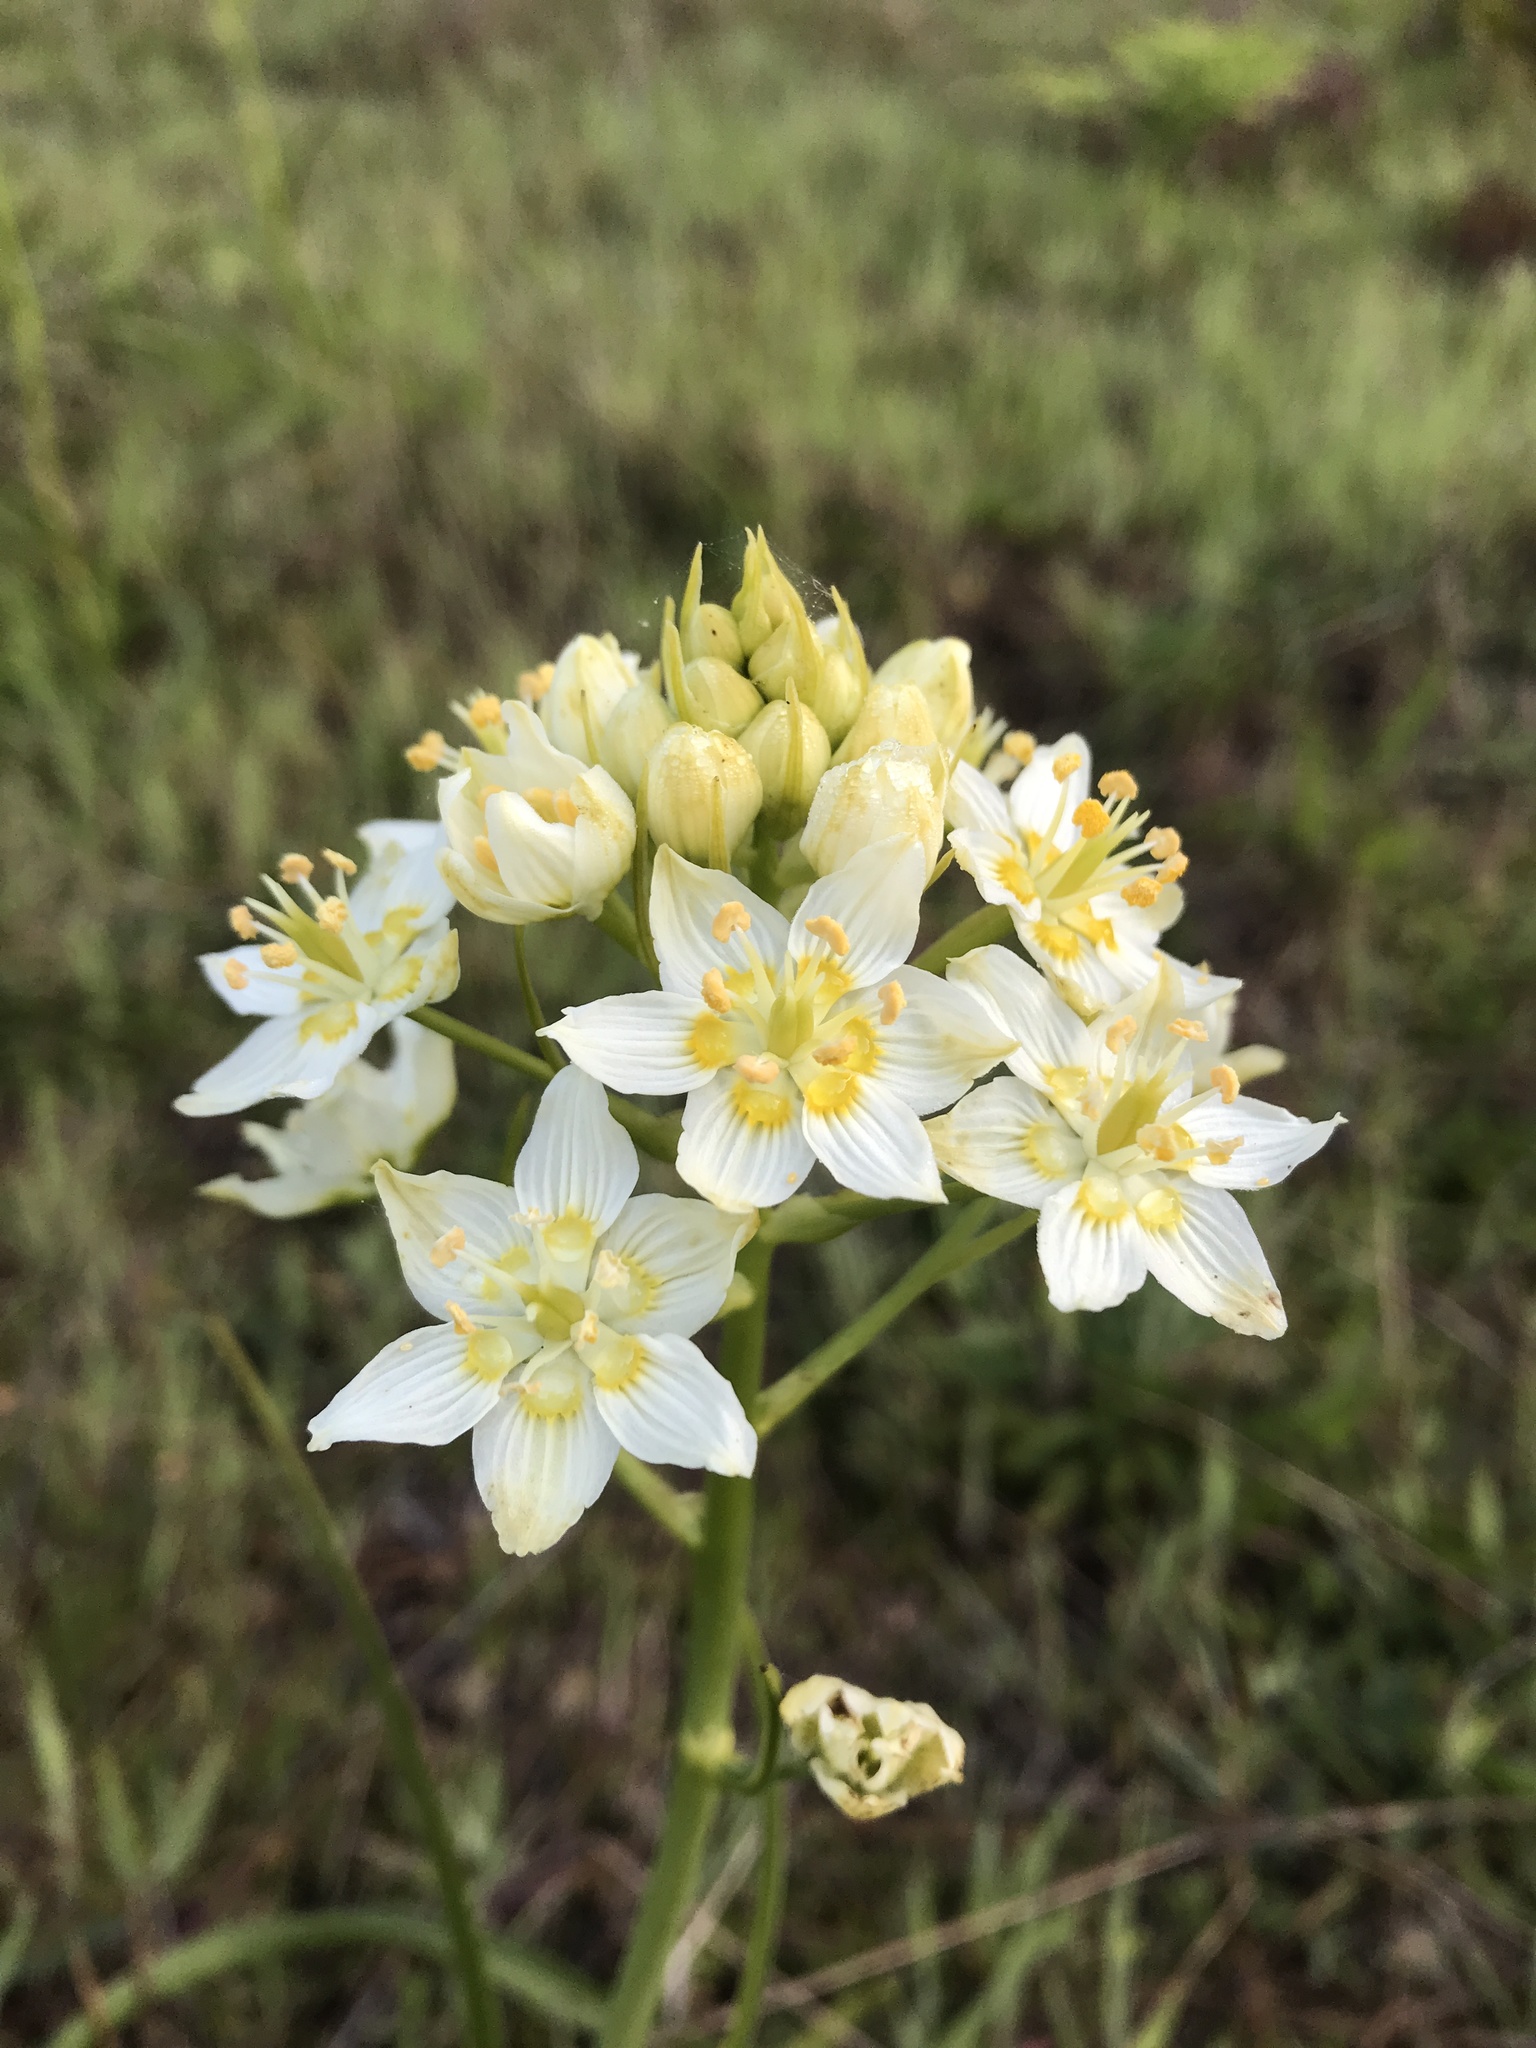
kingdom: Plantae
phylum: Tracheophyta
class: Liliopsida
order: Liliales
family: Melanthiaceae
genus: Toxicoscordion
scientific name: Toxicoscordion fremontii
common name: Fremont's death camas
